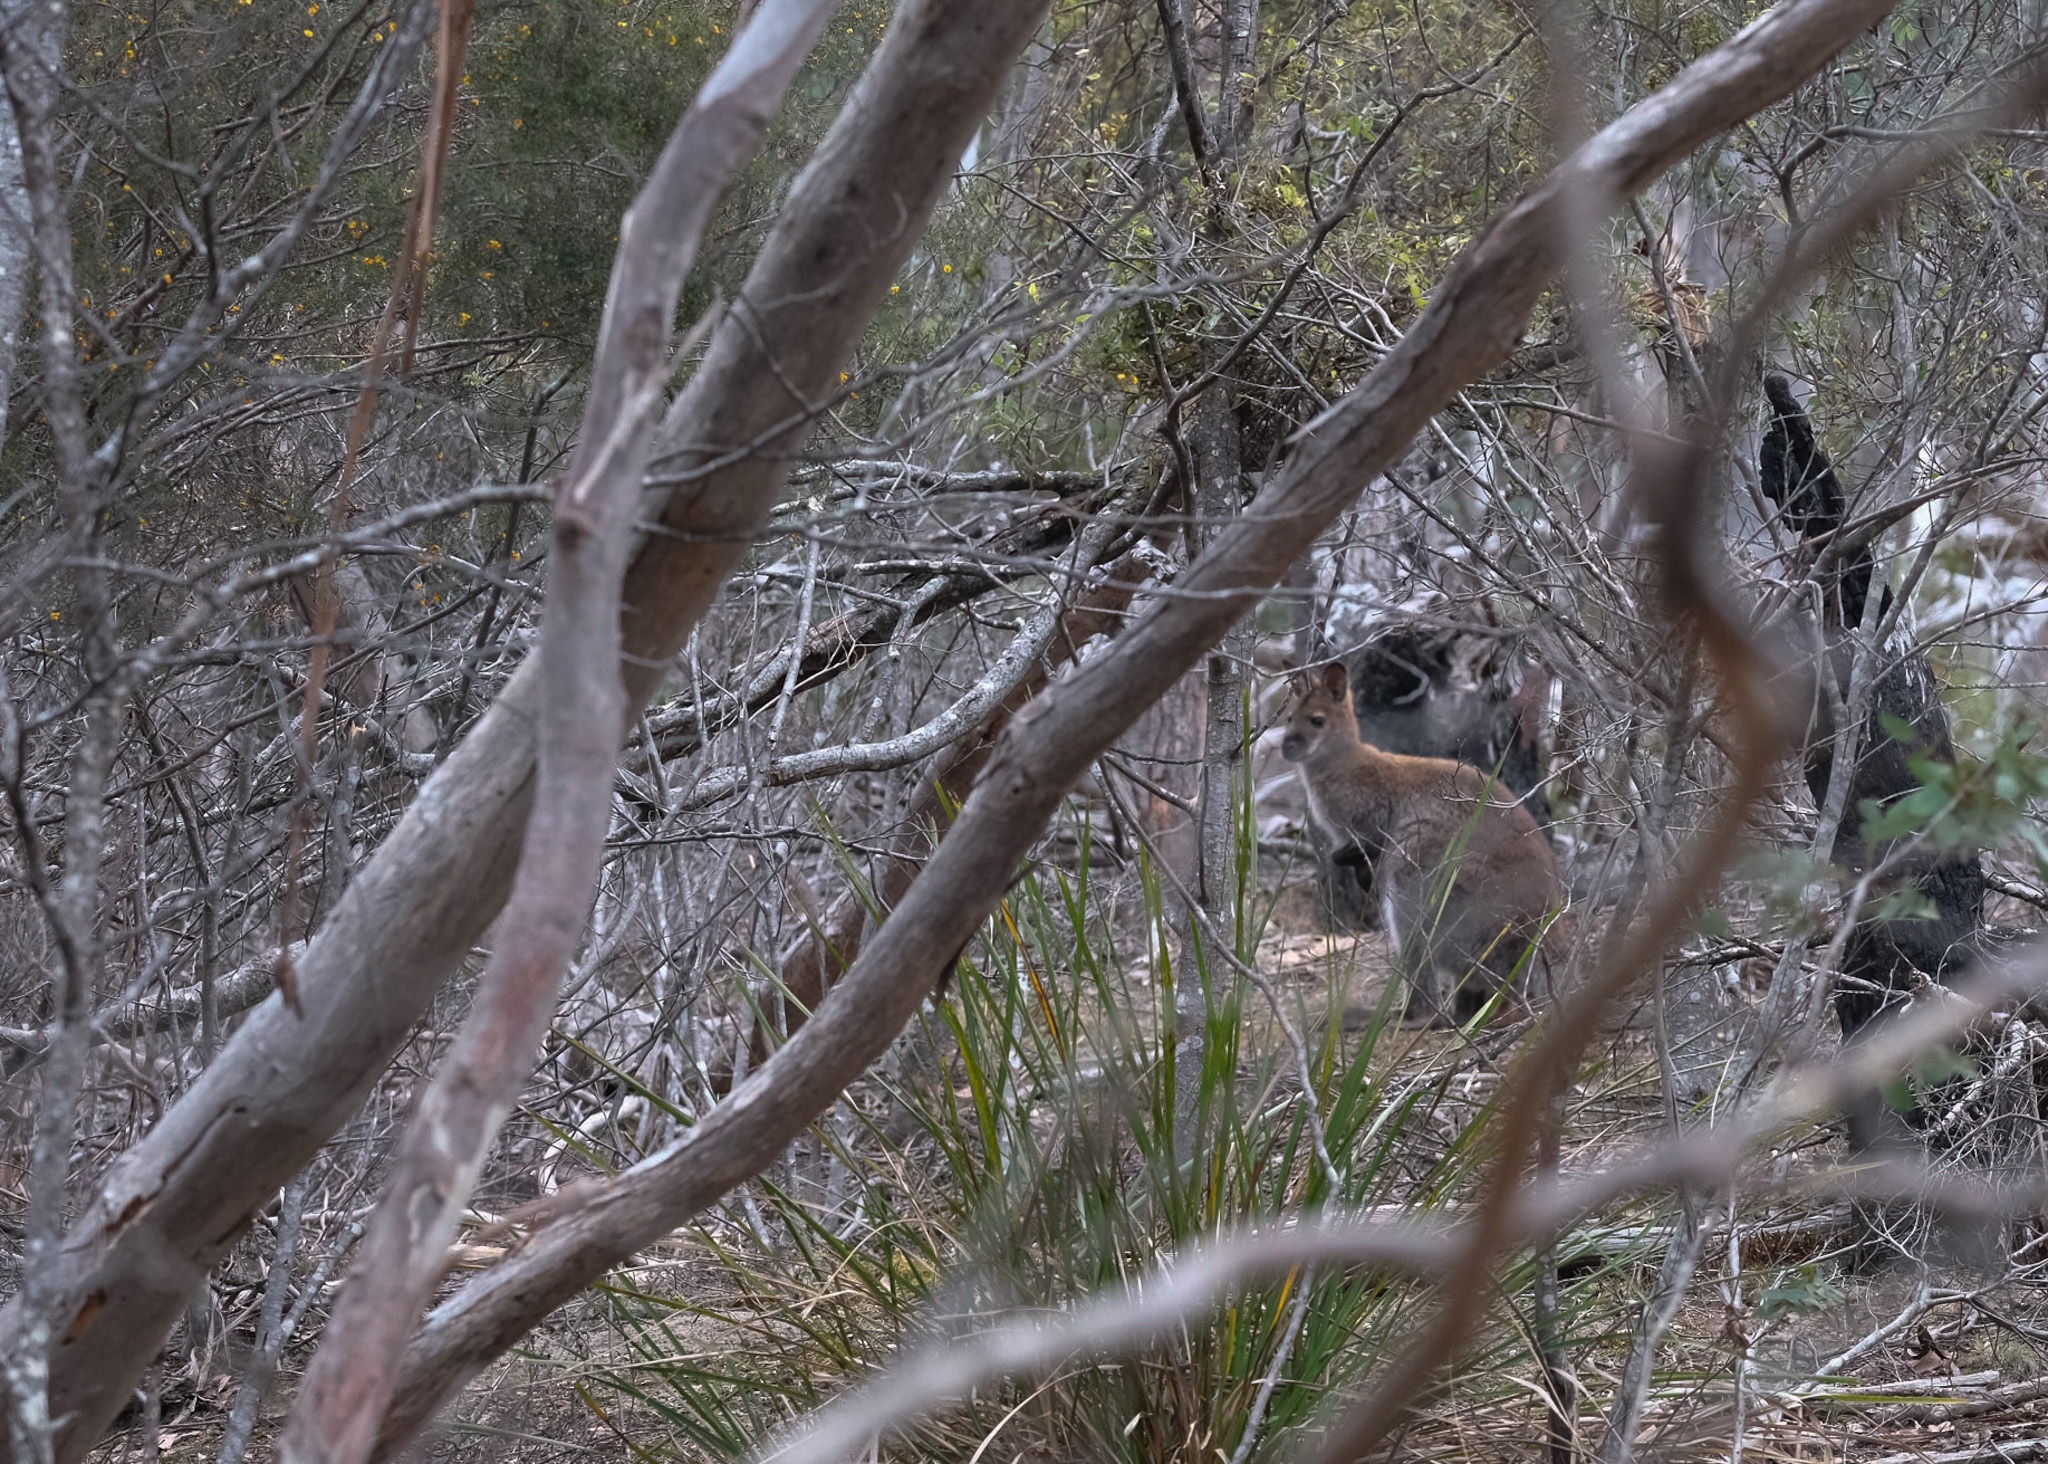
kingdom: Animalia
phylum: Chordata
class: Mammalia
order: Diprotodontia
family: Macropodidae
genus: Notamacropus
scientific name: Notamacropus rufogriseus
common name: Red-necked wallaby
